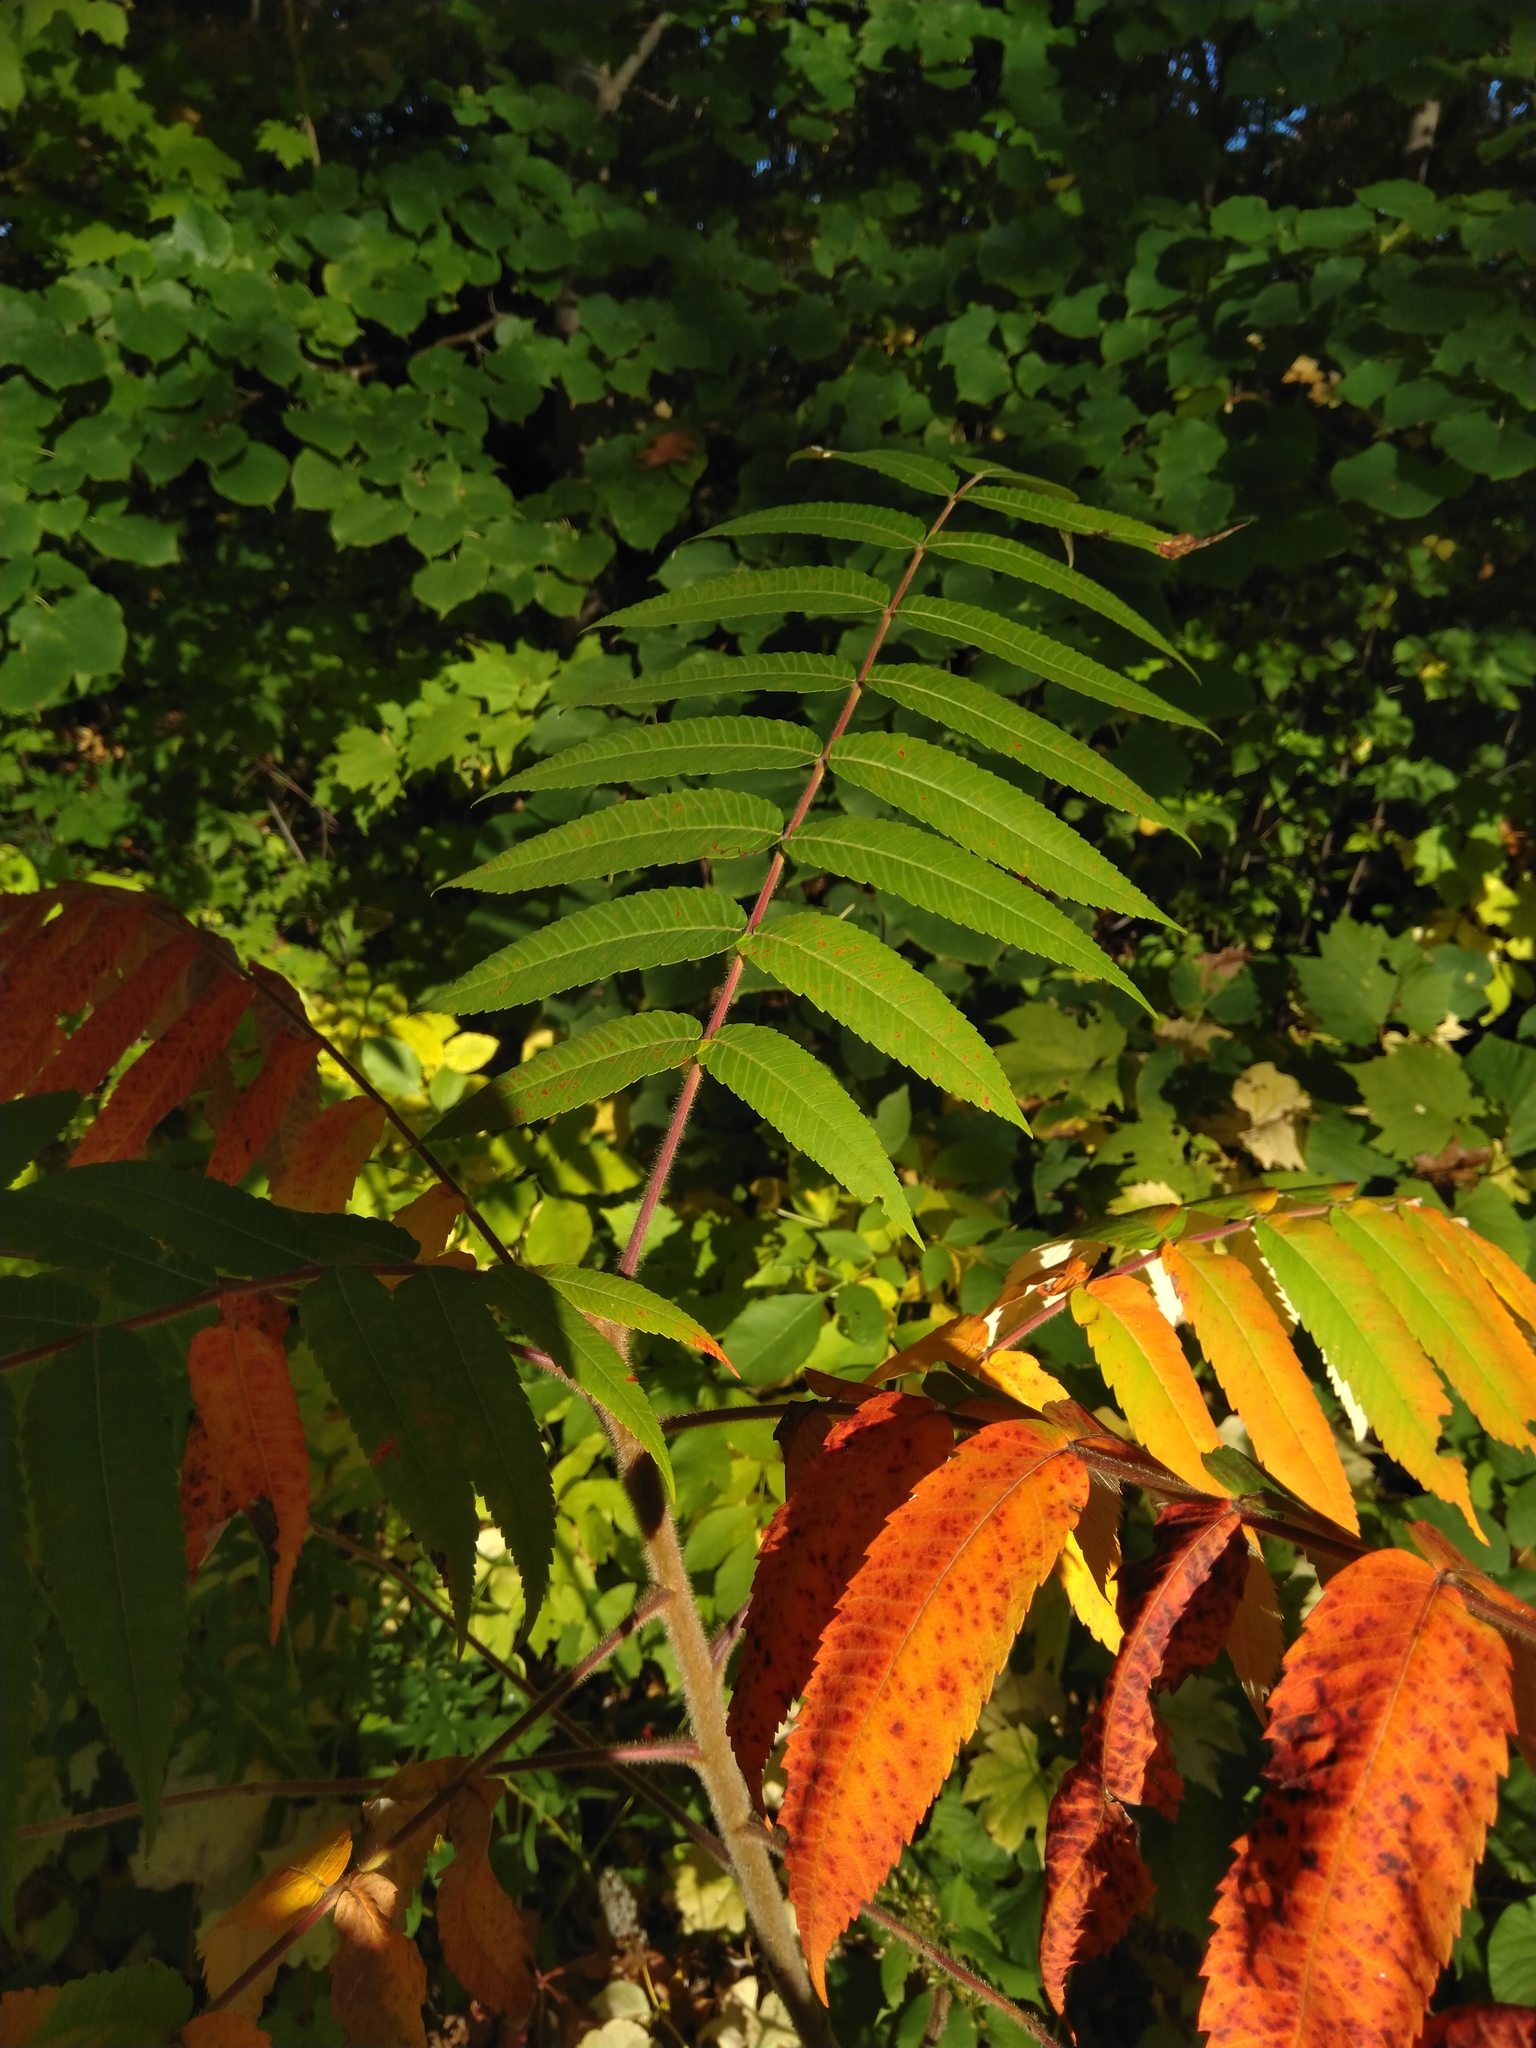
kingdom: Plantae
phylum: Tracheophyta
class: Magnoliopsida
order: Sapindales
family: Anacardiaceae
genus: Rhus
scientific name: Rhus typhina
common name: Staghorn sumac
